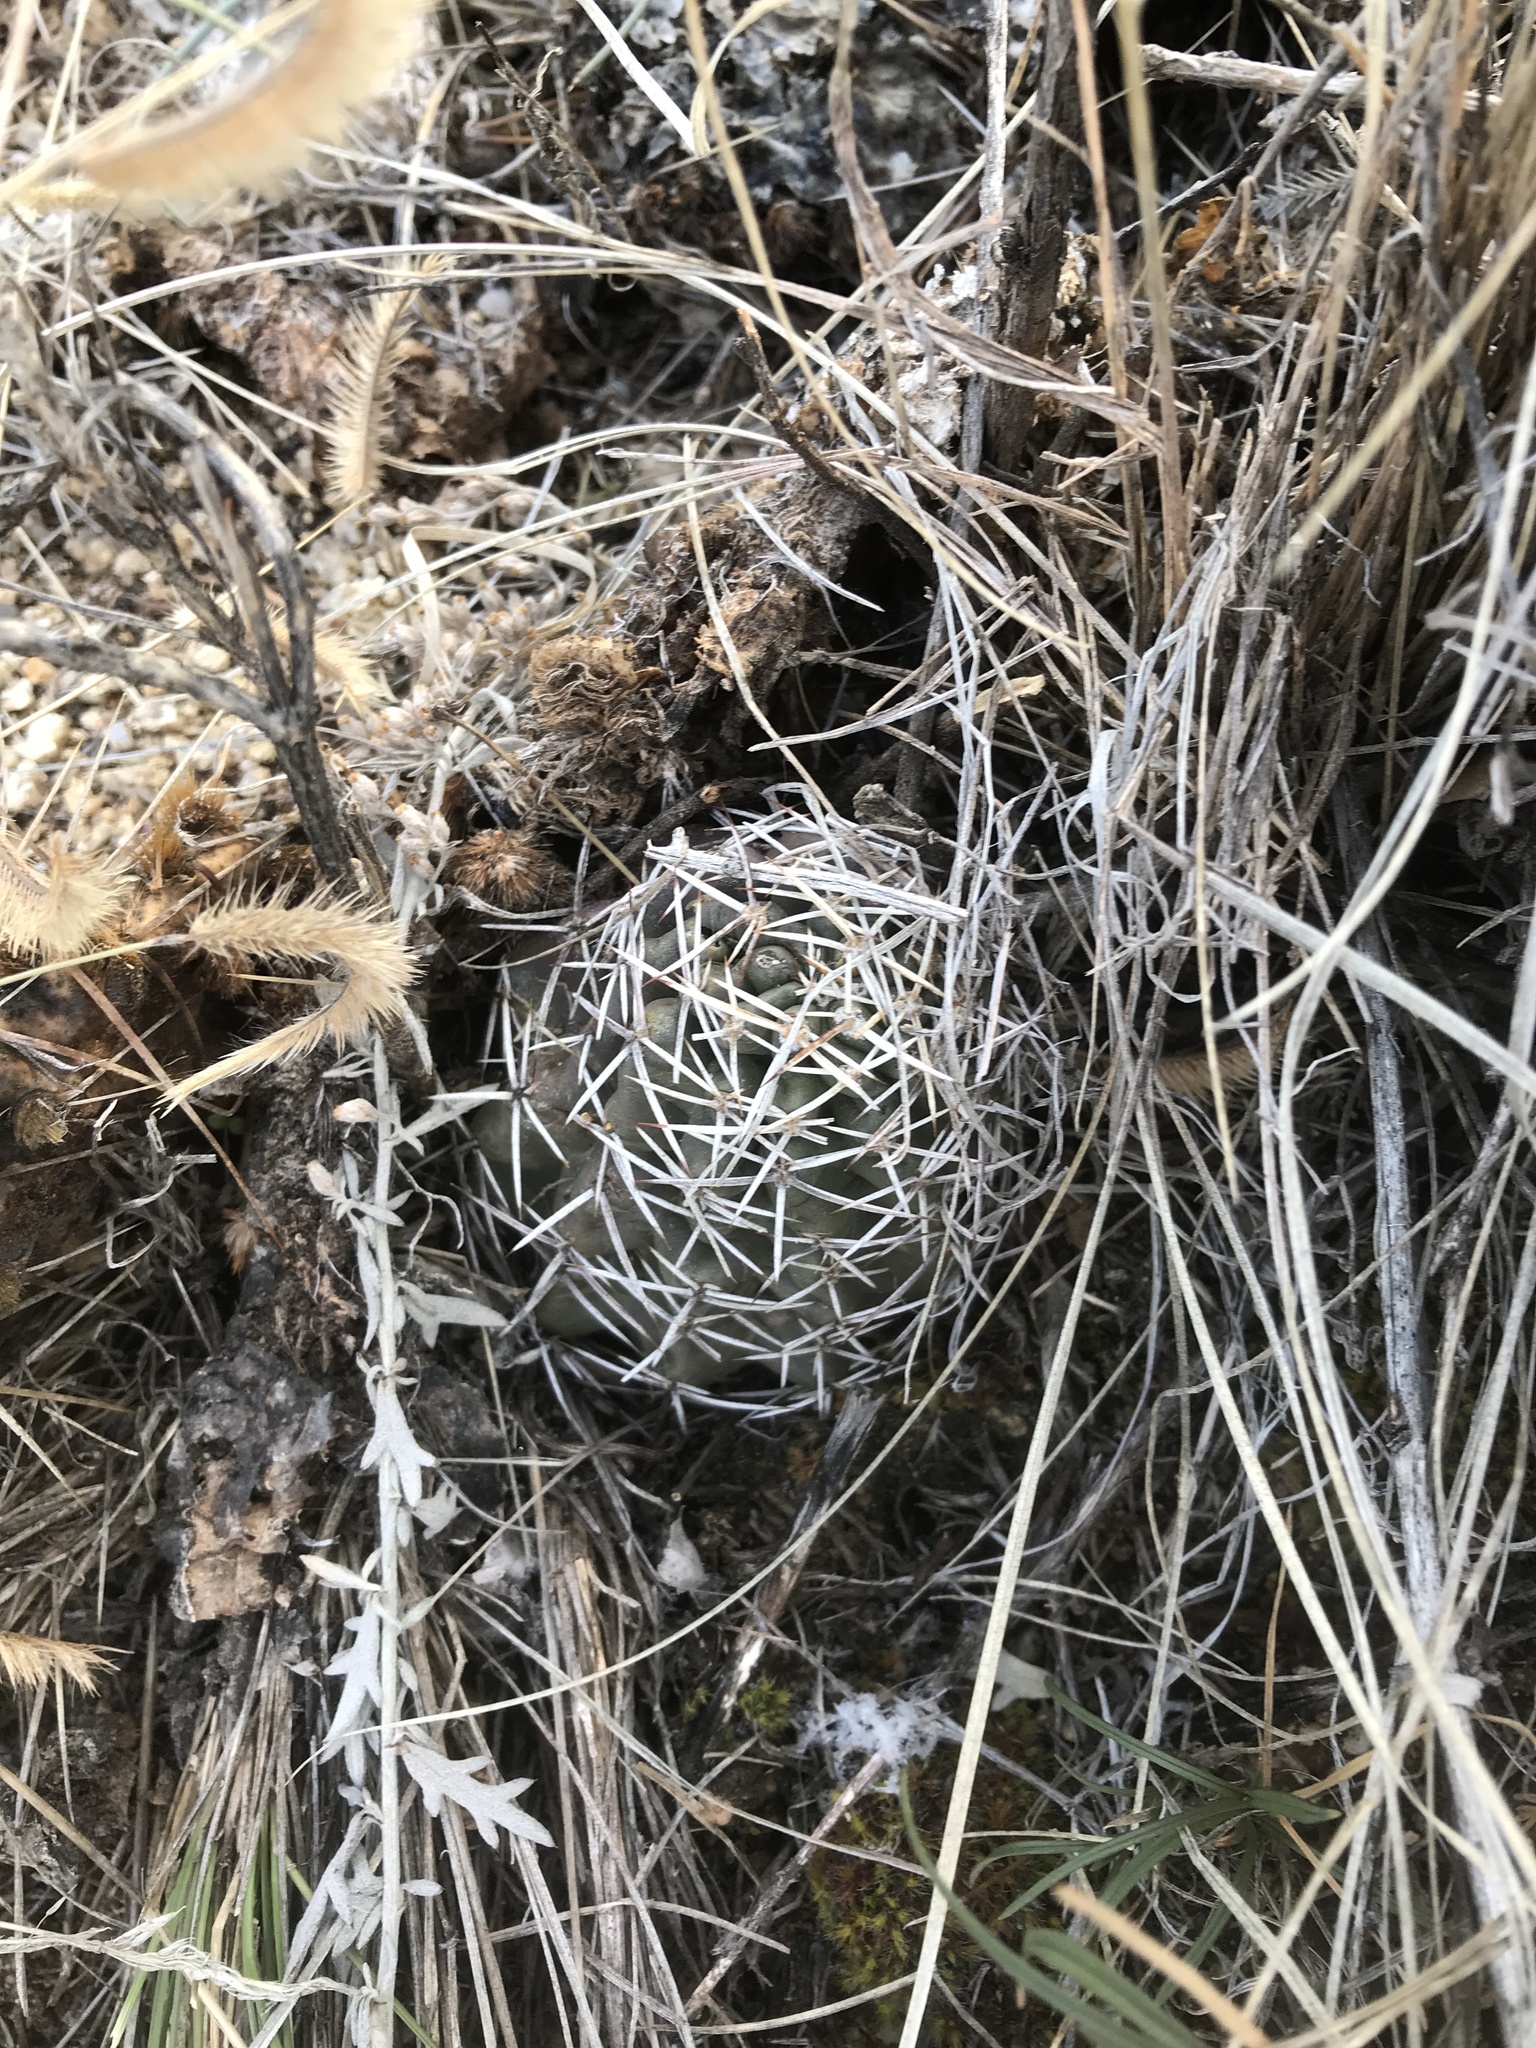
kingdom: Plantae
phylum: Tracheophyta
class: Magnoliopsida
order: Caryophyllales
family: Cactaceae
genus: Echinocereus
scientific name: Echinocereus fendleri
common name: Fendler's hedgehog cactus
